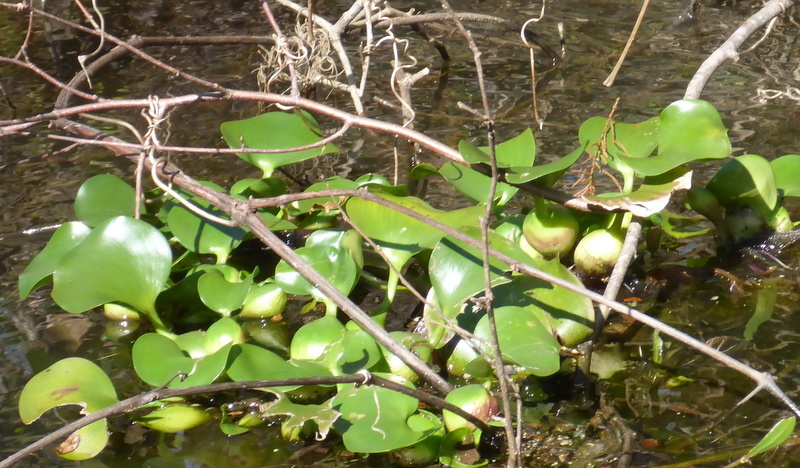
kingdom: Plantae
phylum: Tracheophyta
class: Liliopsida
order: Commelinales
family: Pontederiaceae
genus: Pontederia
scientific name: Pontederia crassipes
